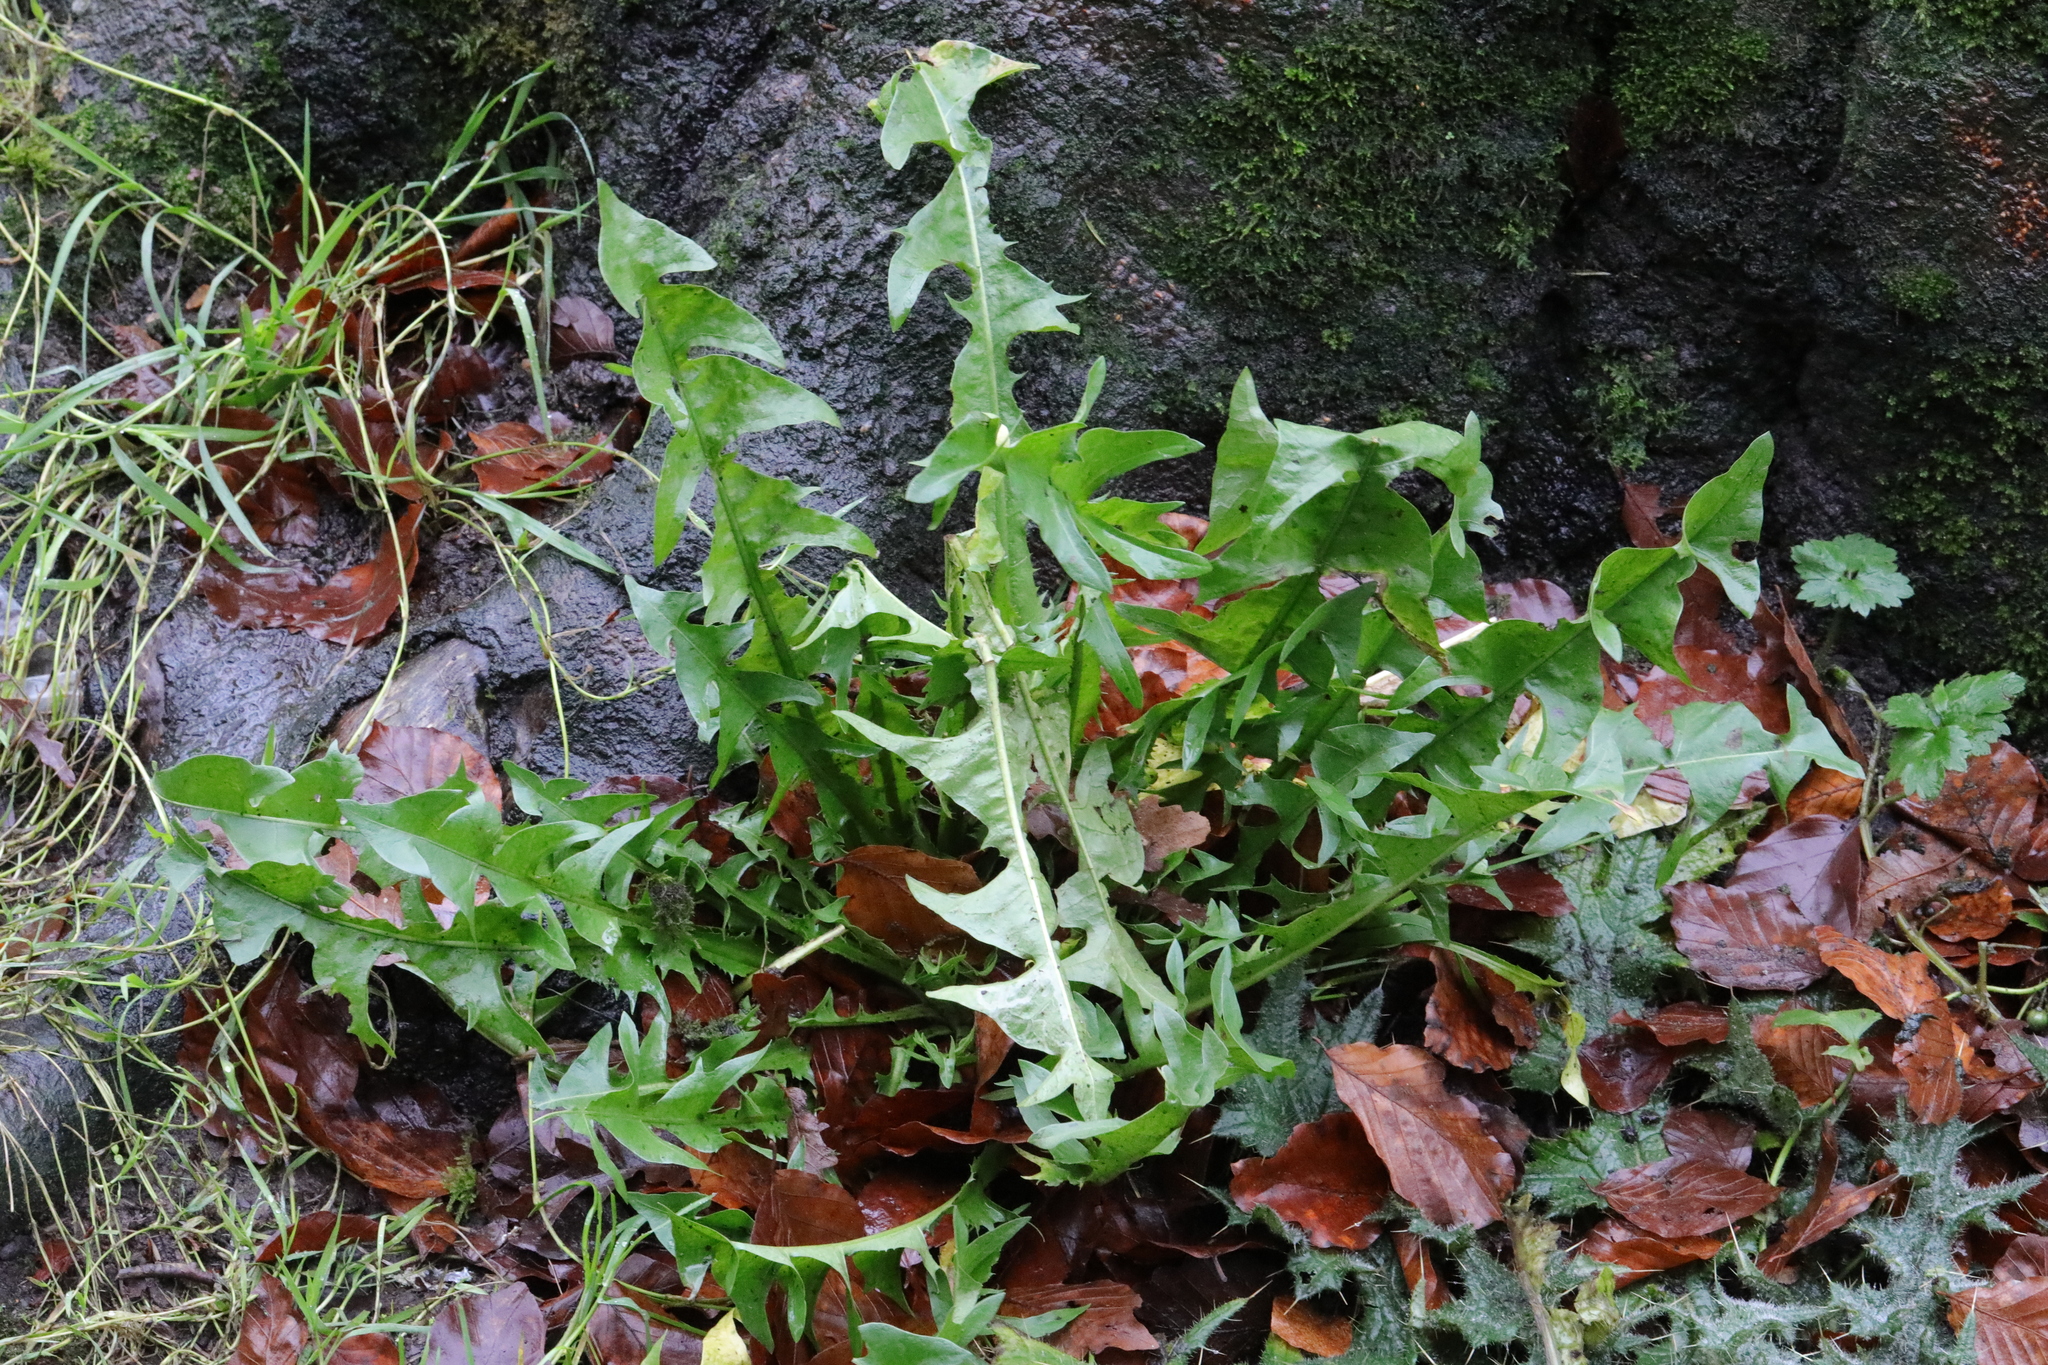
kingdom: Plantae
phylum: Tracheophyta
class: Magnoliopsida
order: Asterales
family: Asteraceae
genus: Taraxacum
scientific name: Taraxacum officinale
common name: Common dandelion
